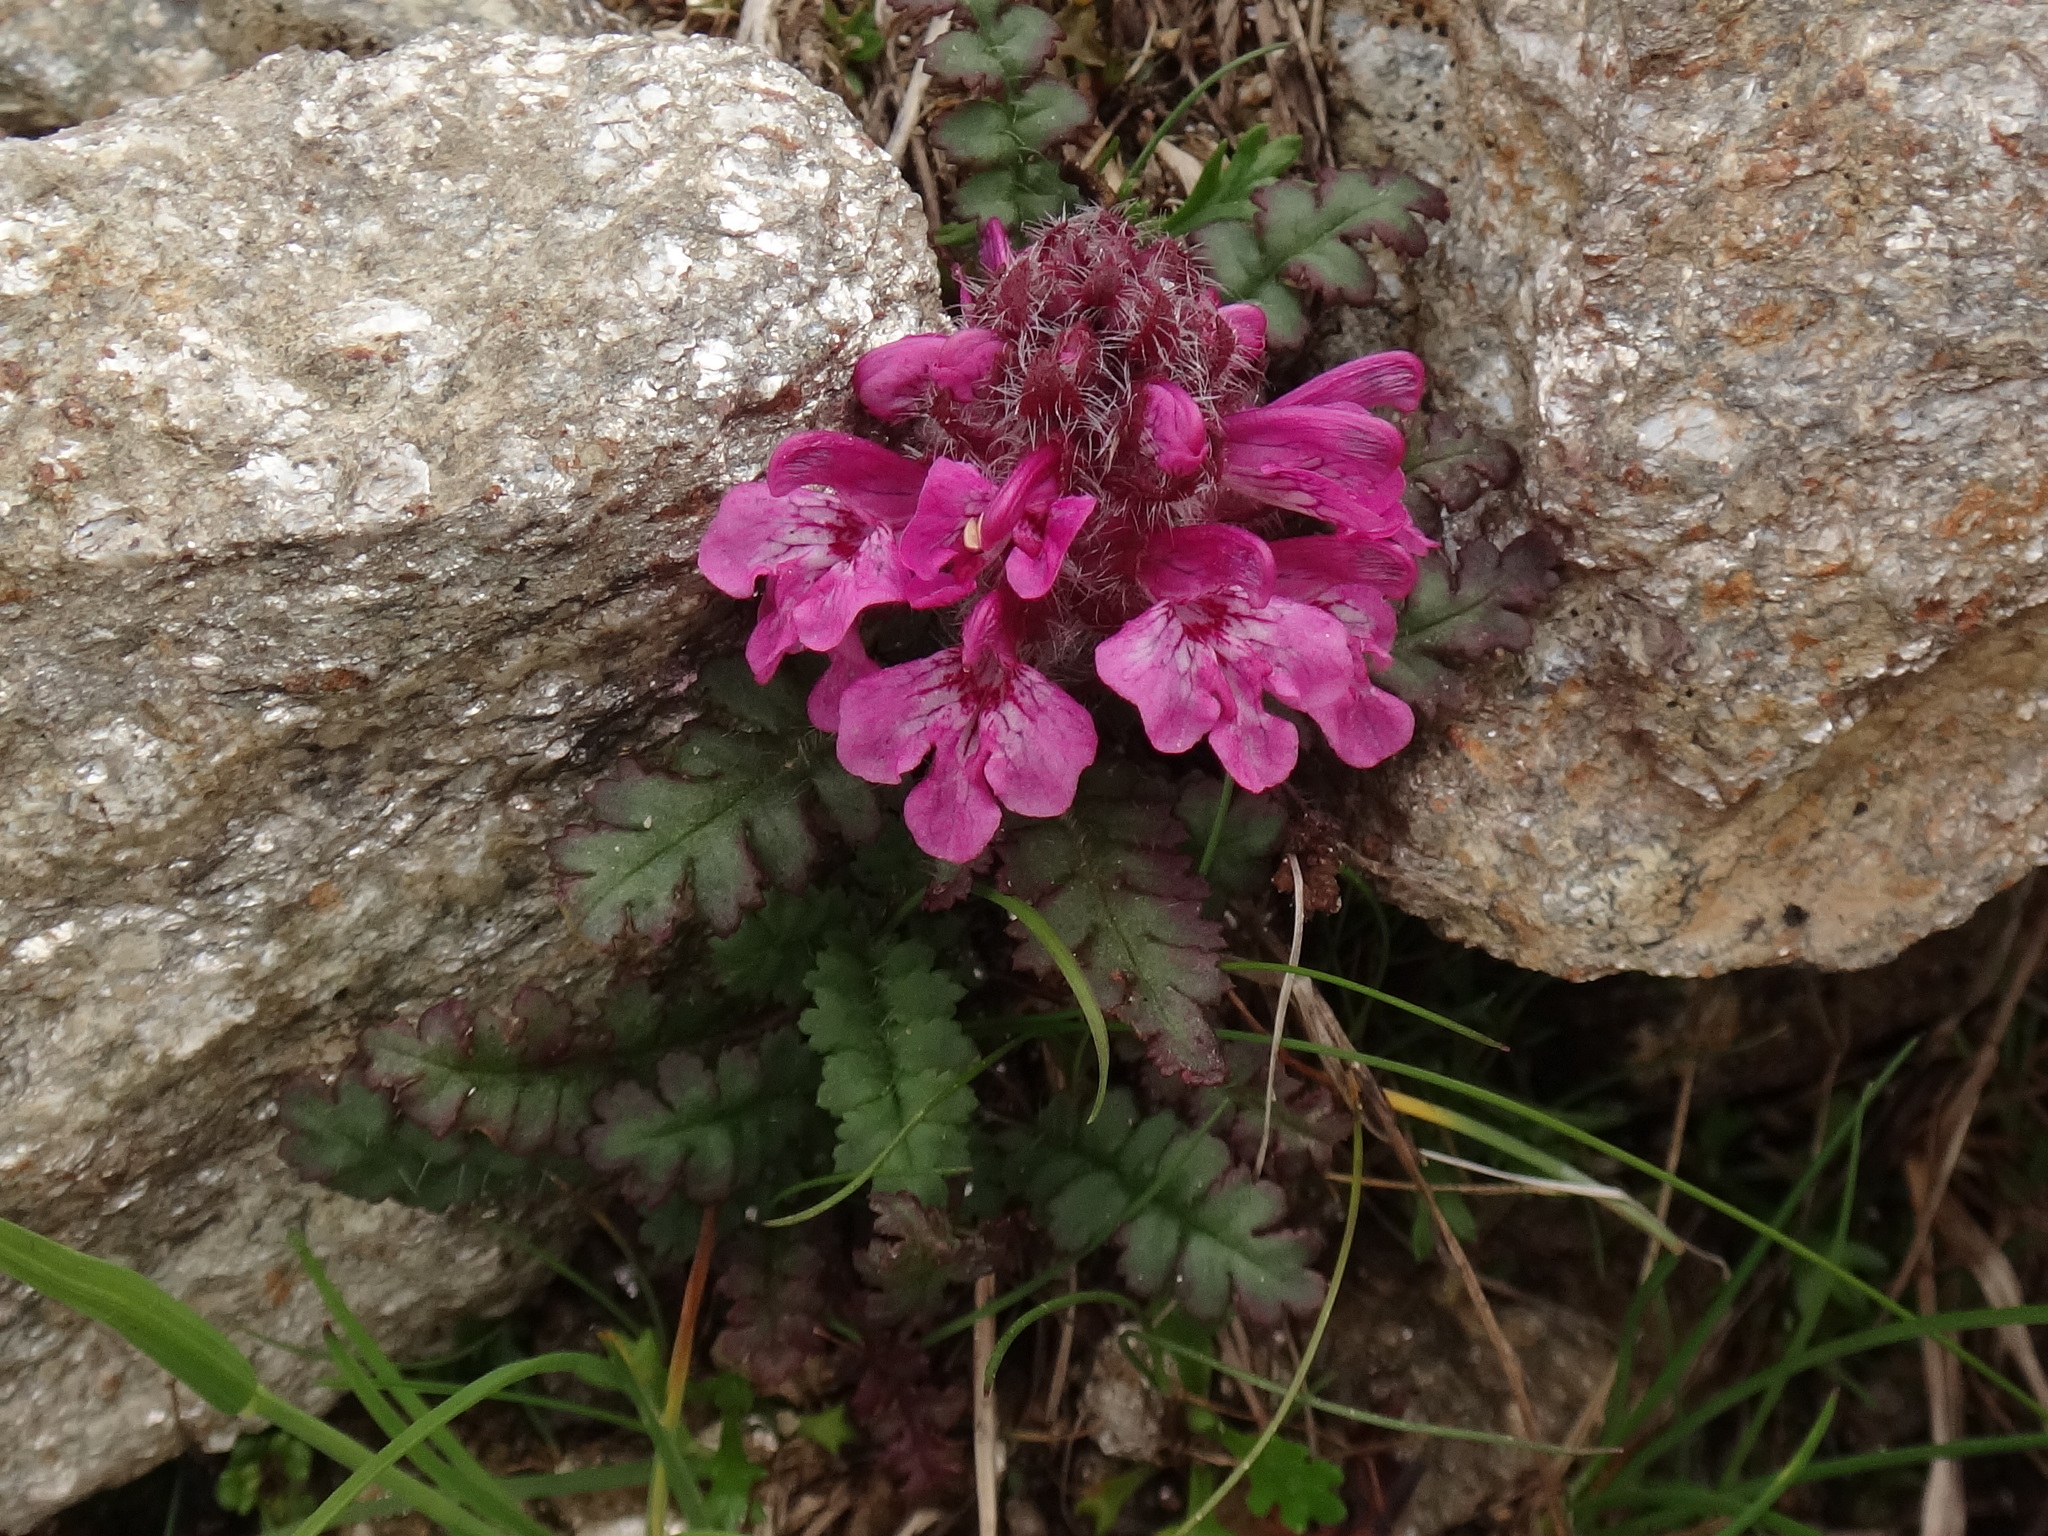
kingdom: Plantae
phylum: Tracheophyta
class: Magnoliopsida
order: Lamiales
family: Orobanchaceae
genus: Pedicularis
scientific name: Pedicularis verticillata
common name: Whorled lousewort
